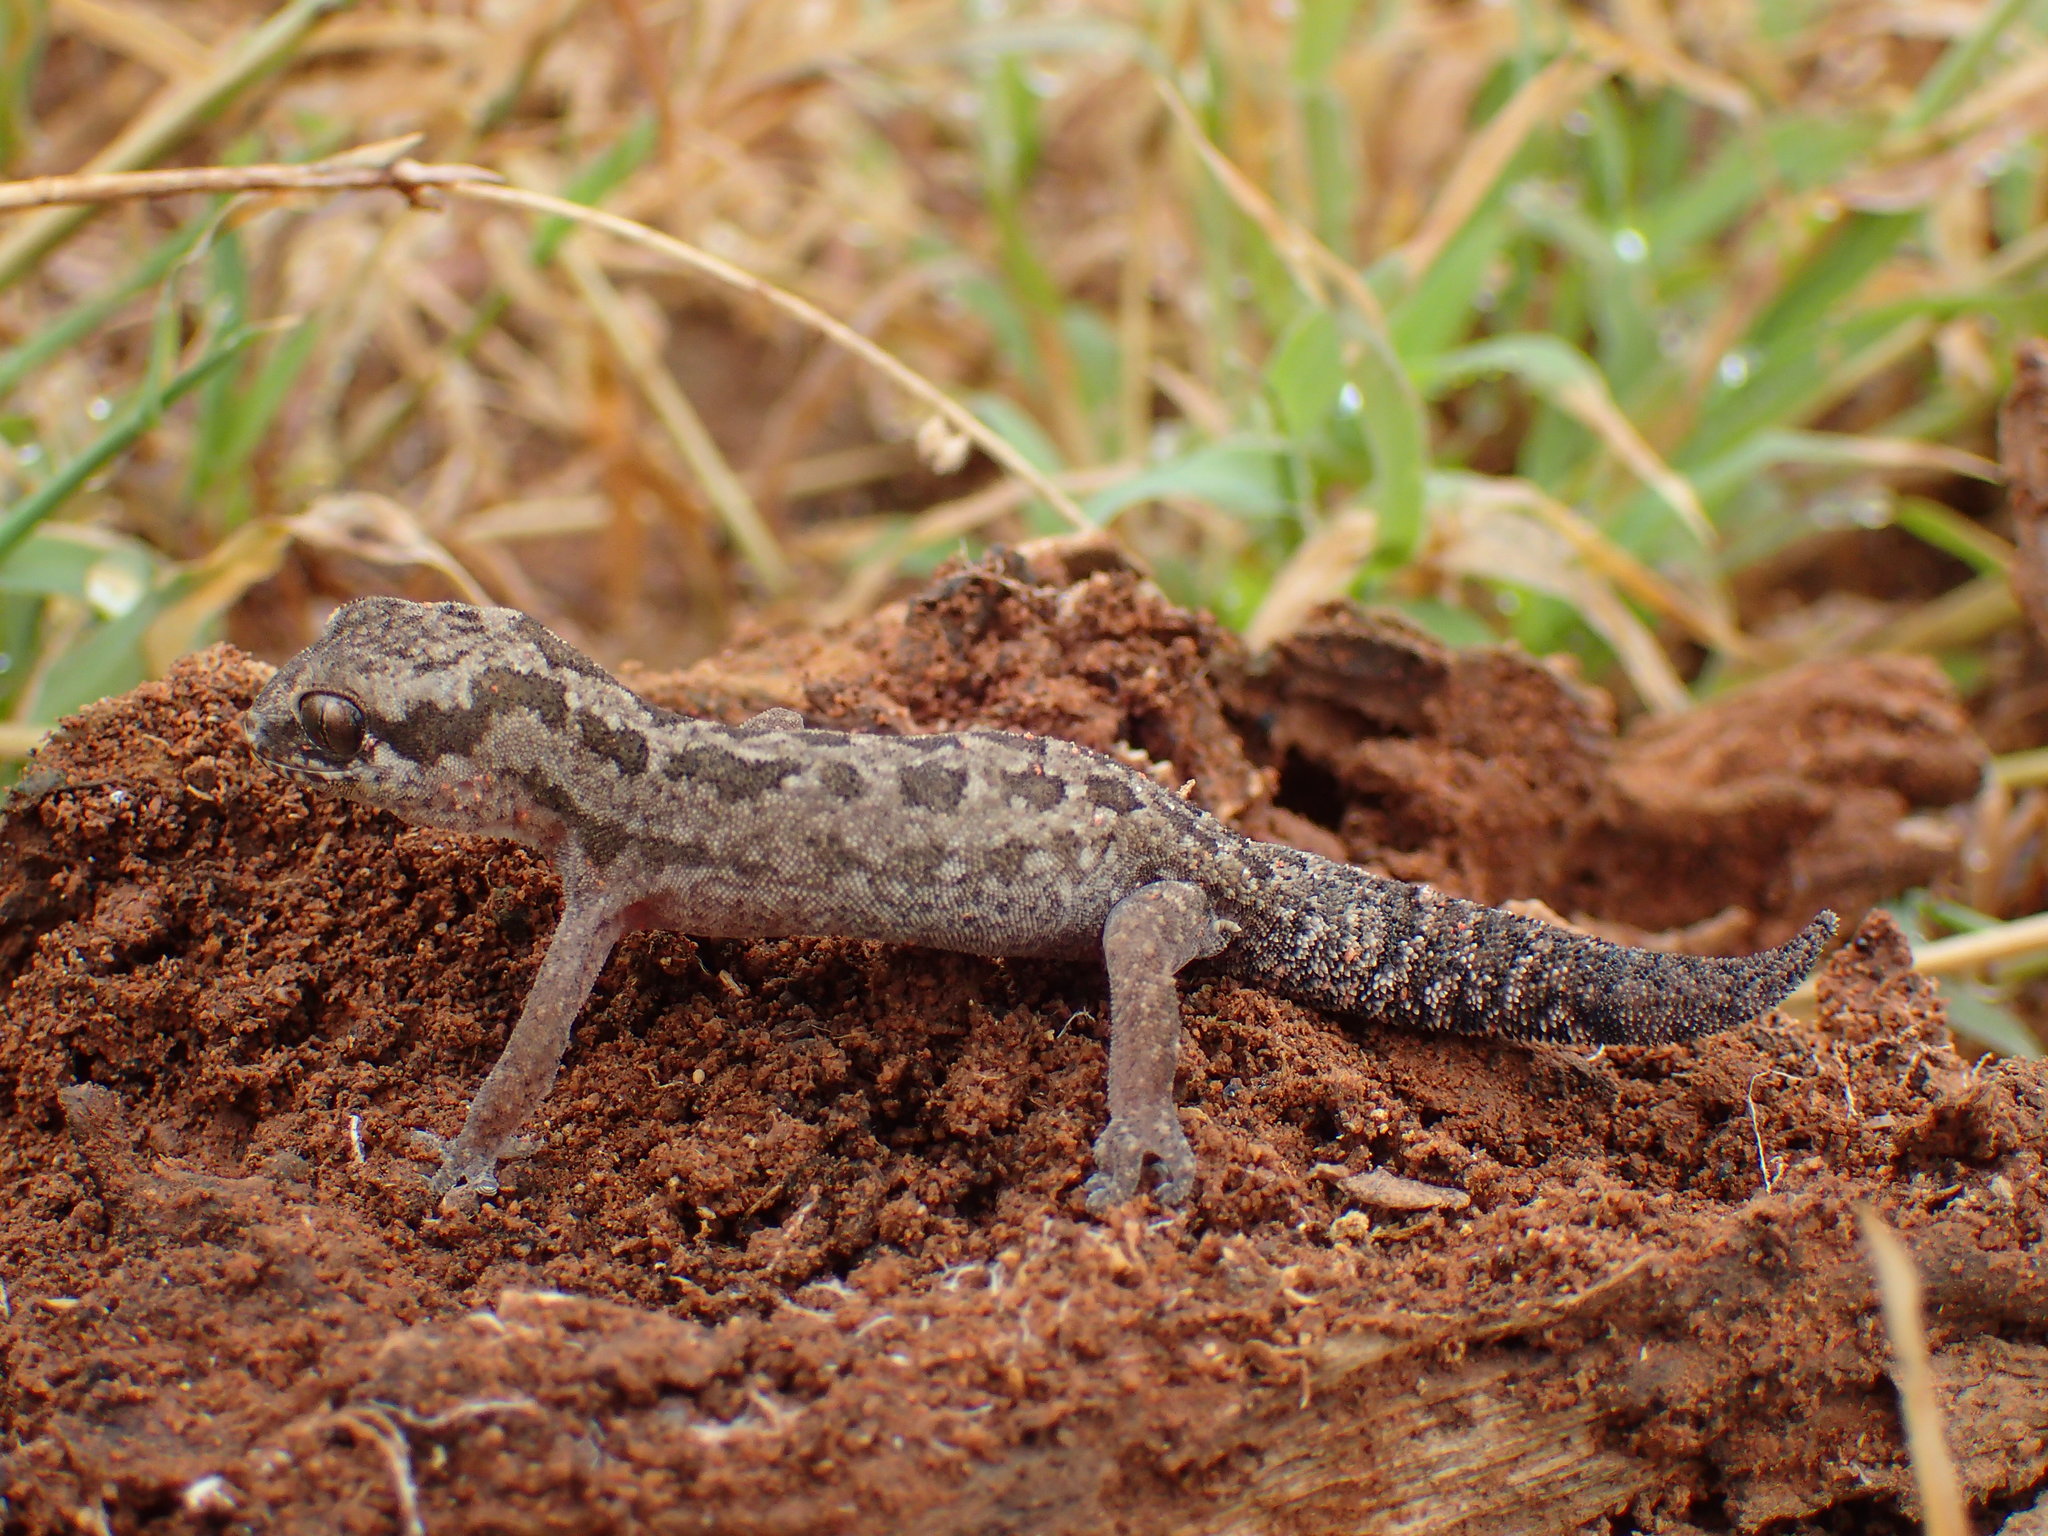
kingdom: Animalia
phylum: Chordata
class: Squamata
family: Gekkonidae
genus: Pachydactylus
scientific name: Pachydactylus maculatus
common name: Spotted thick-toed gecko
